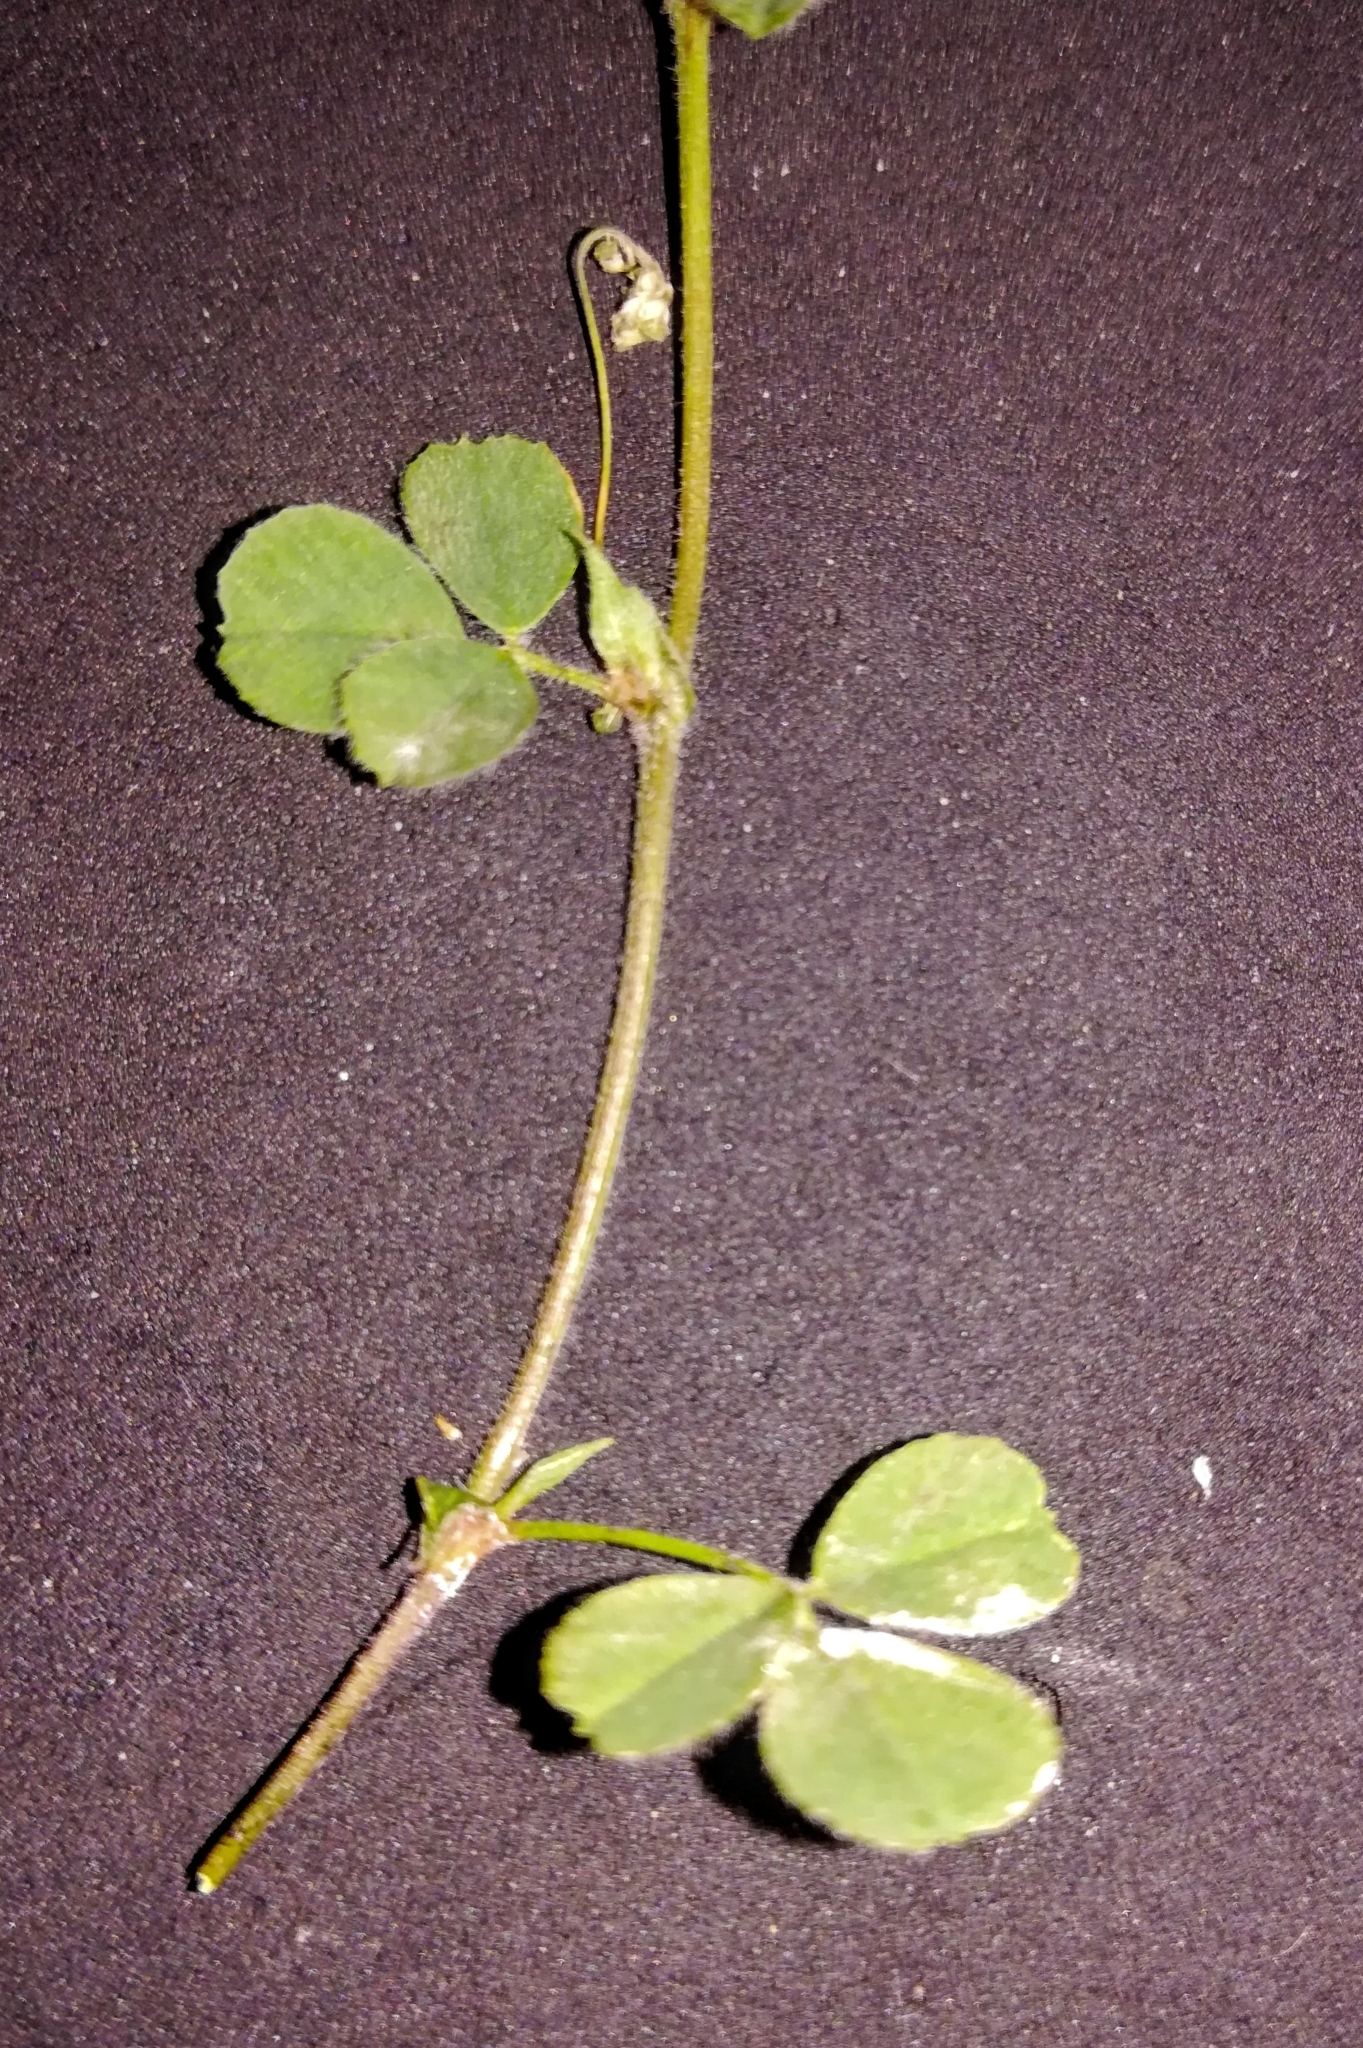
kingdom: Plantae
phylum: Tracheophyta
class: Magnoliopsida
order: Fabales
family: Fabaceae
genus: Medicago
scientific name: Medicago lupulina
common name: Black medick
